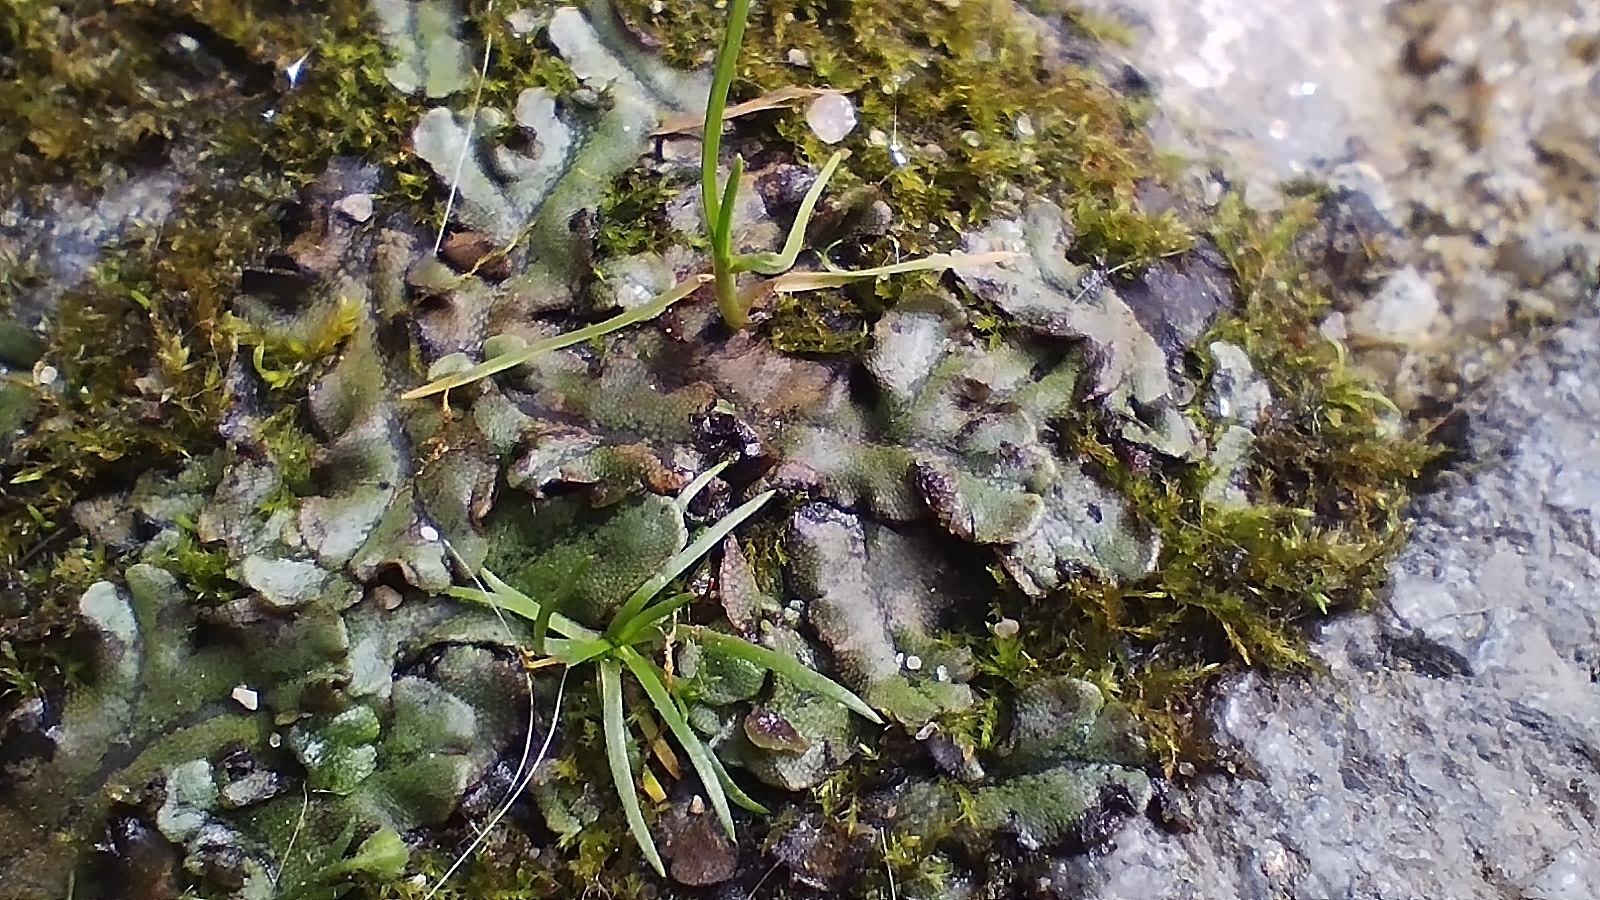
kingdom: Plantae
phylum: Marchantiophyta
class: Marchantiopsida
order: Marchantiales
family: Marchantiaceae
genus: Marchantia
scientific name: Marchantia polymorpha
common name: Common liverwort
